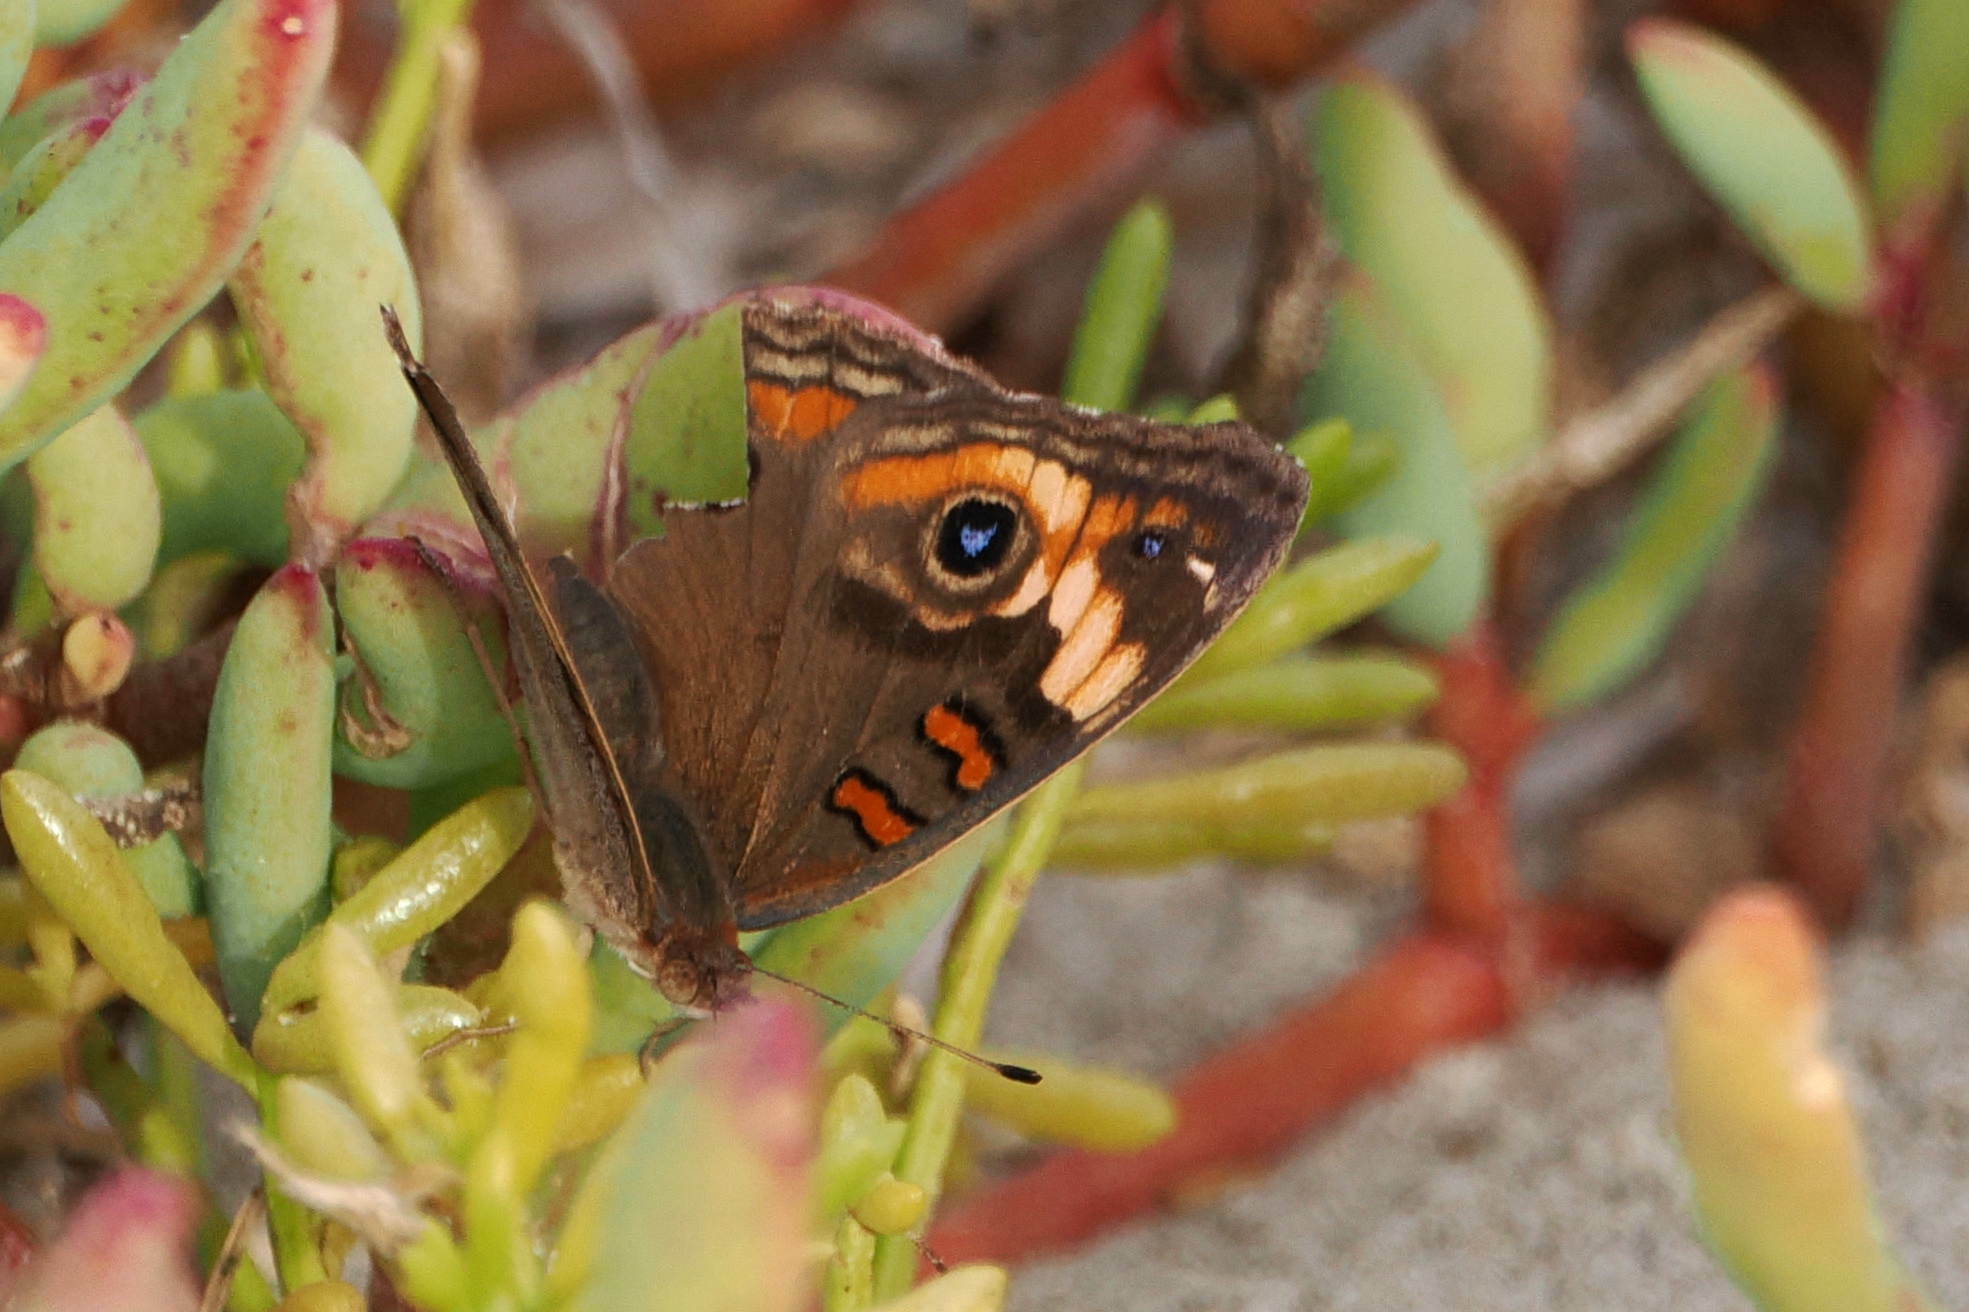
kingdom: Animalia
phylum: Arthropoda
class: Insecta
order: Lepidoptera
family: Nymphalidae
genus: Junonia
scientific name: Junonia pacoma
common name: Pacific mangrove buckeye
